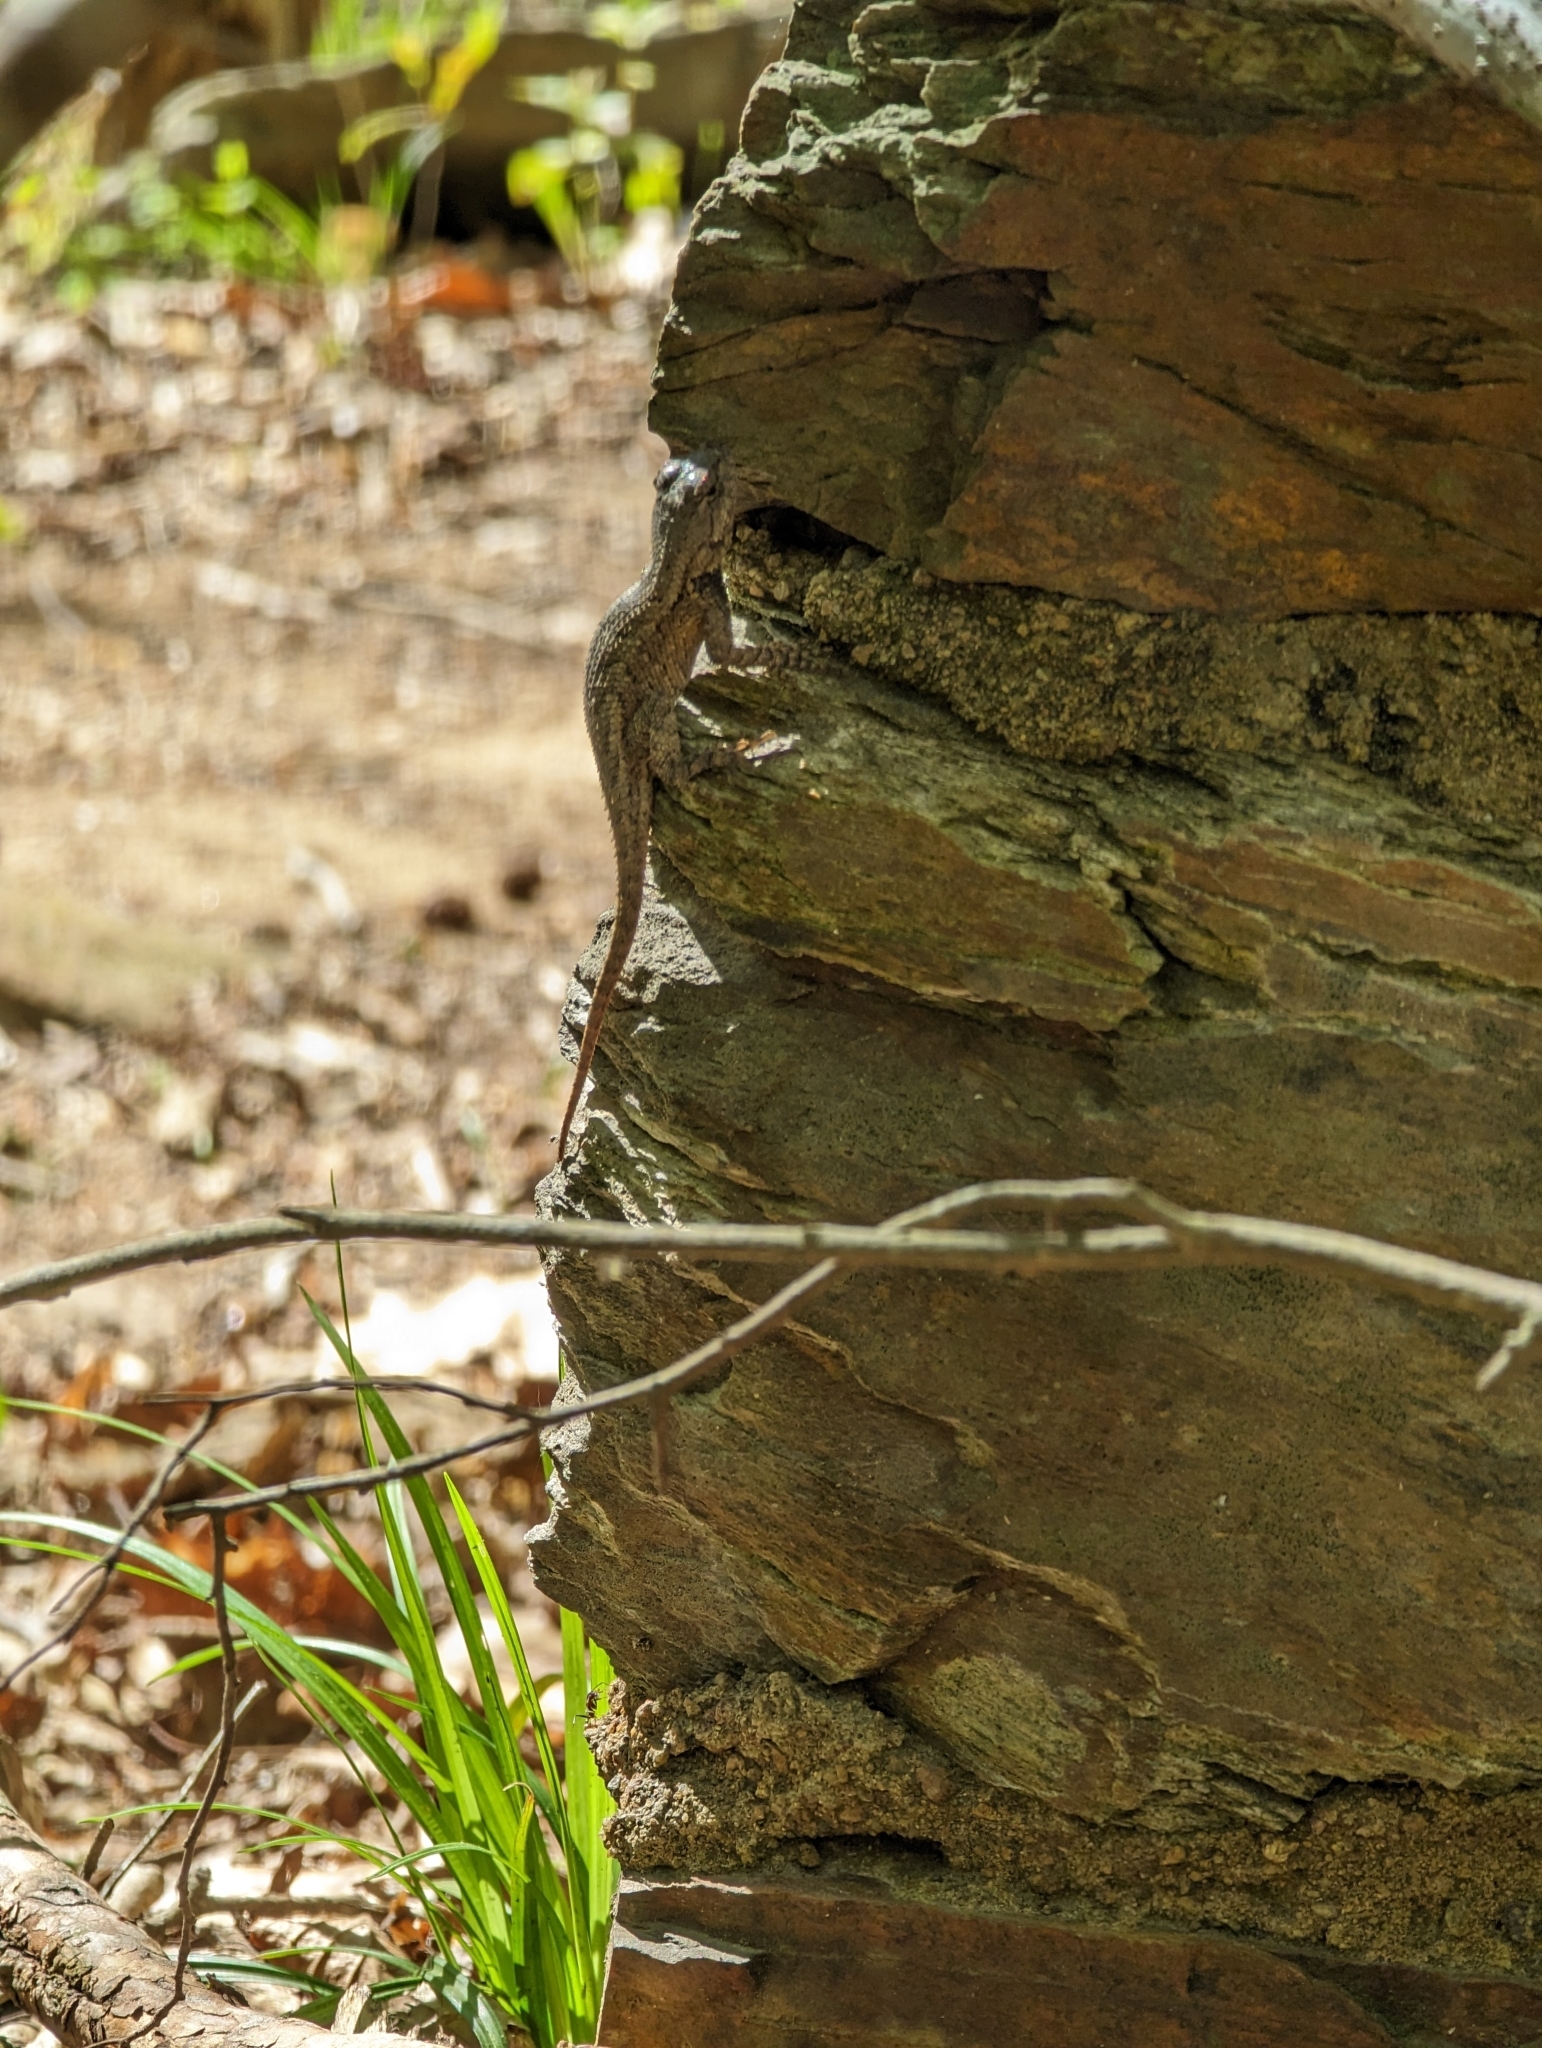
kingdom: Animalia
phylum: Chordata
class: Squamata
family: Phrynosomatidae
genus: Sceloporus
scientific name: Sceloporus undulatus
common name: Eastern fence lizard
